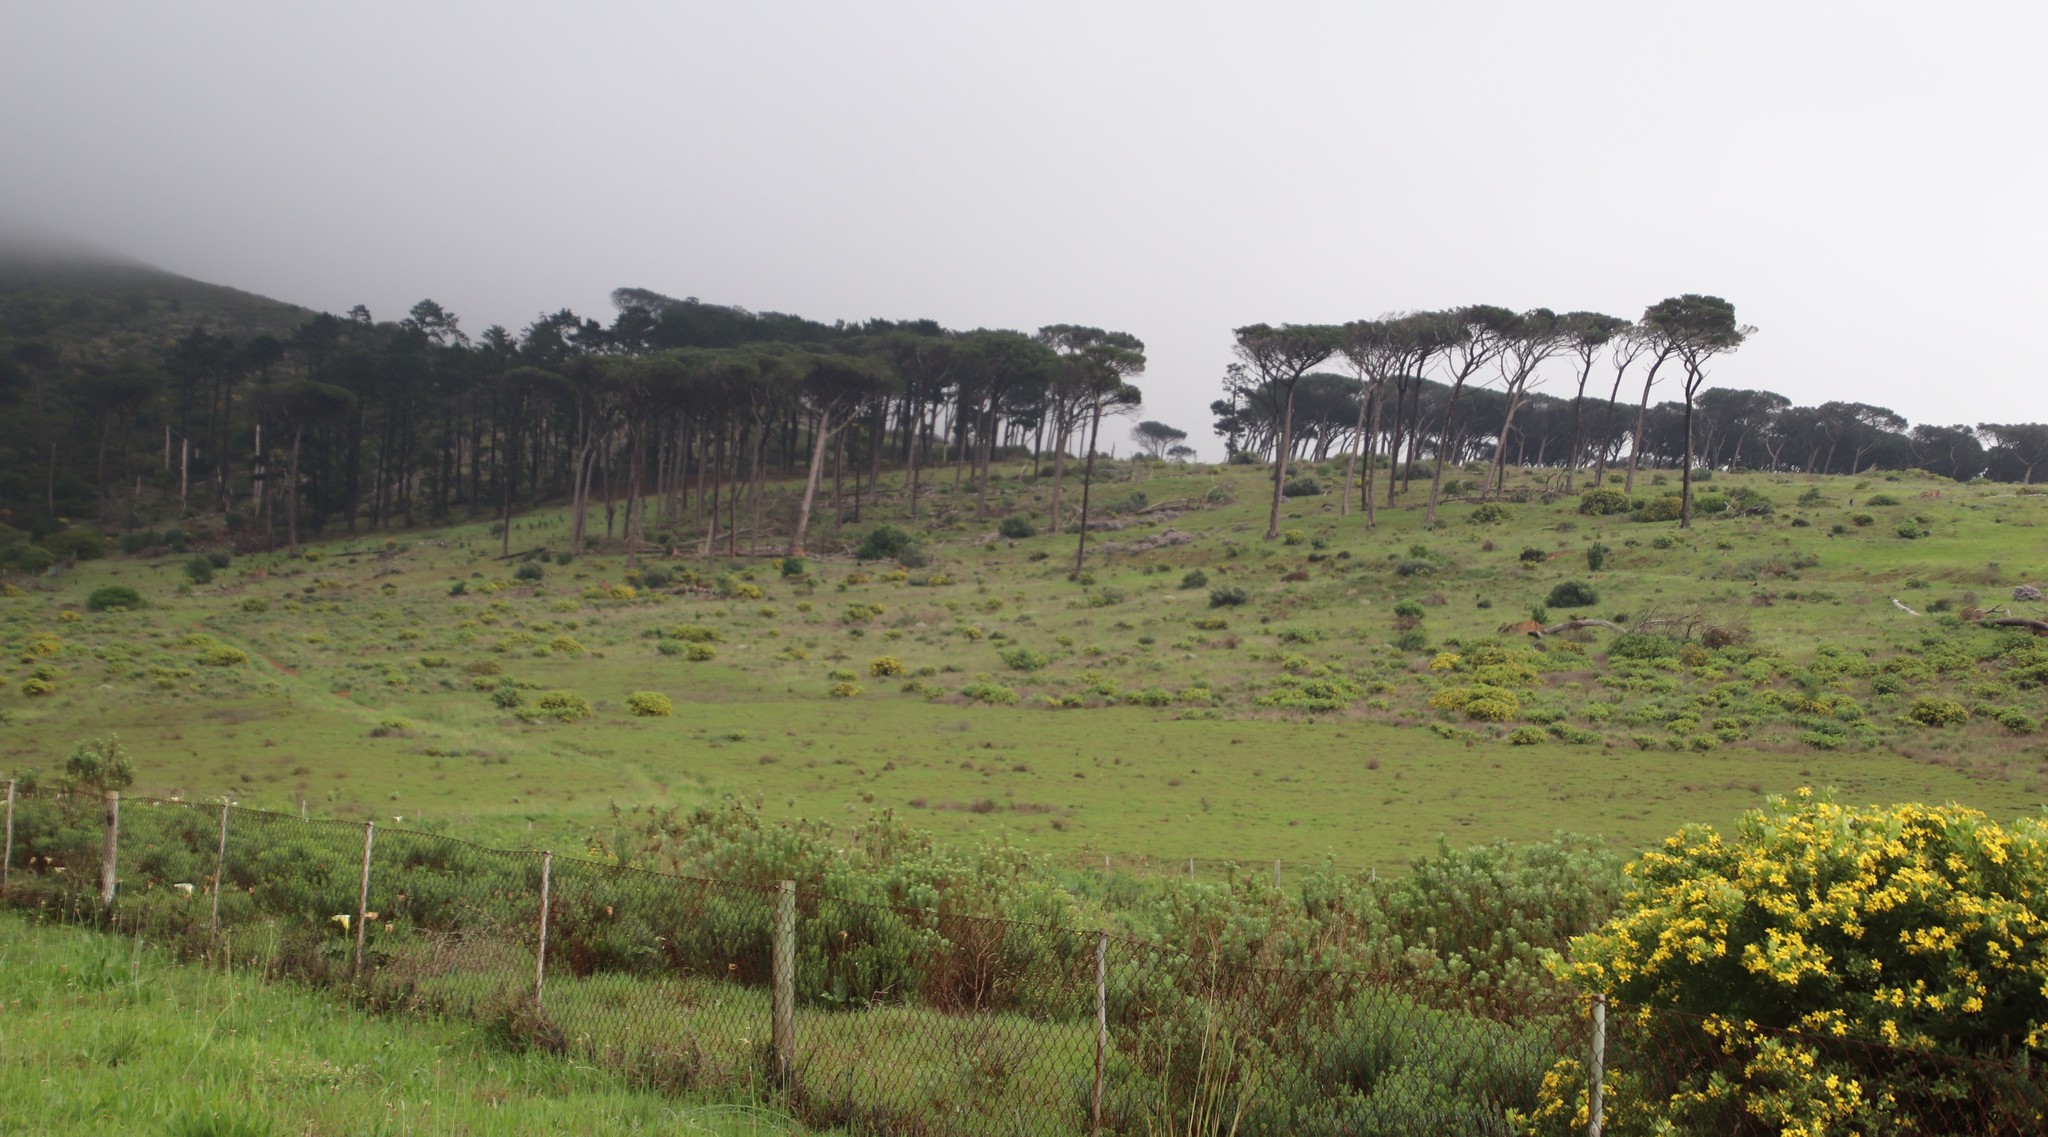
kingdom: Plantae
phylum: Tracheophyta
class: Pinopsida
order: Pinales
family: Pinaceae
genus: Pinus
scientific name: Pinus pinea
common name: Italian stone pine
